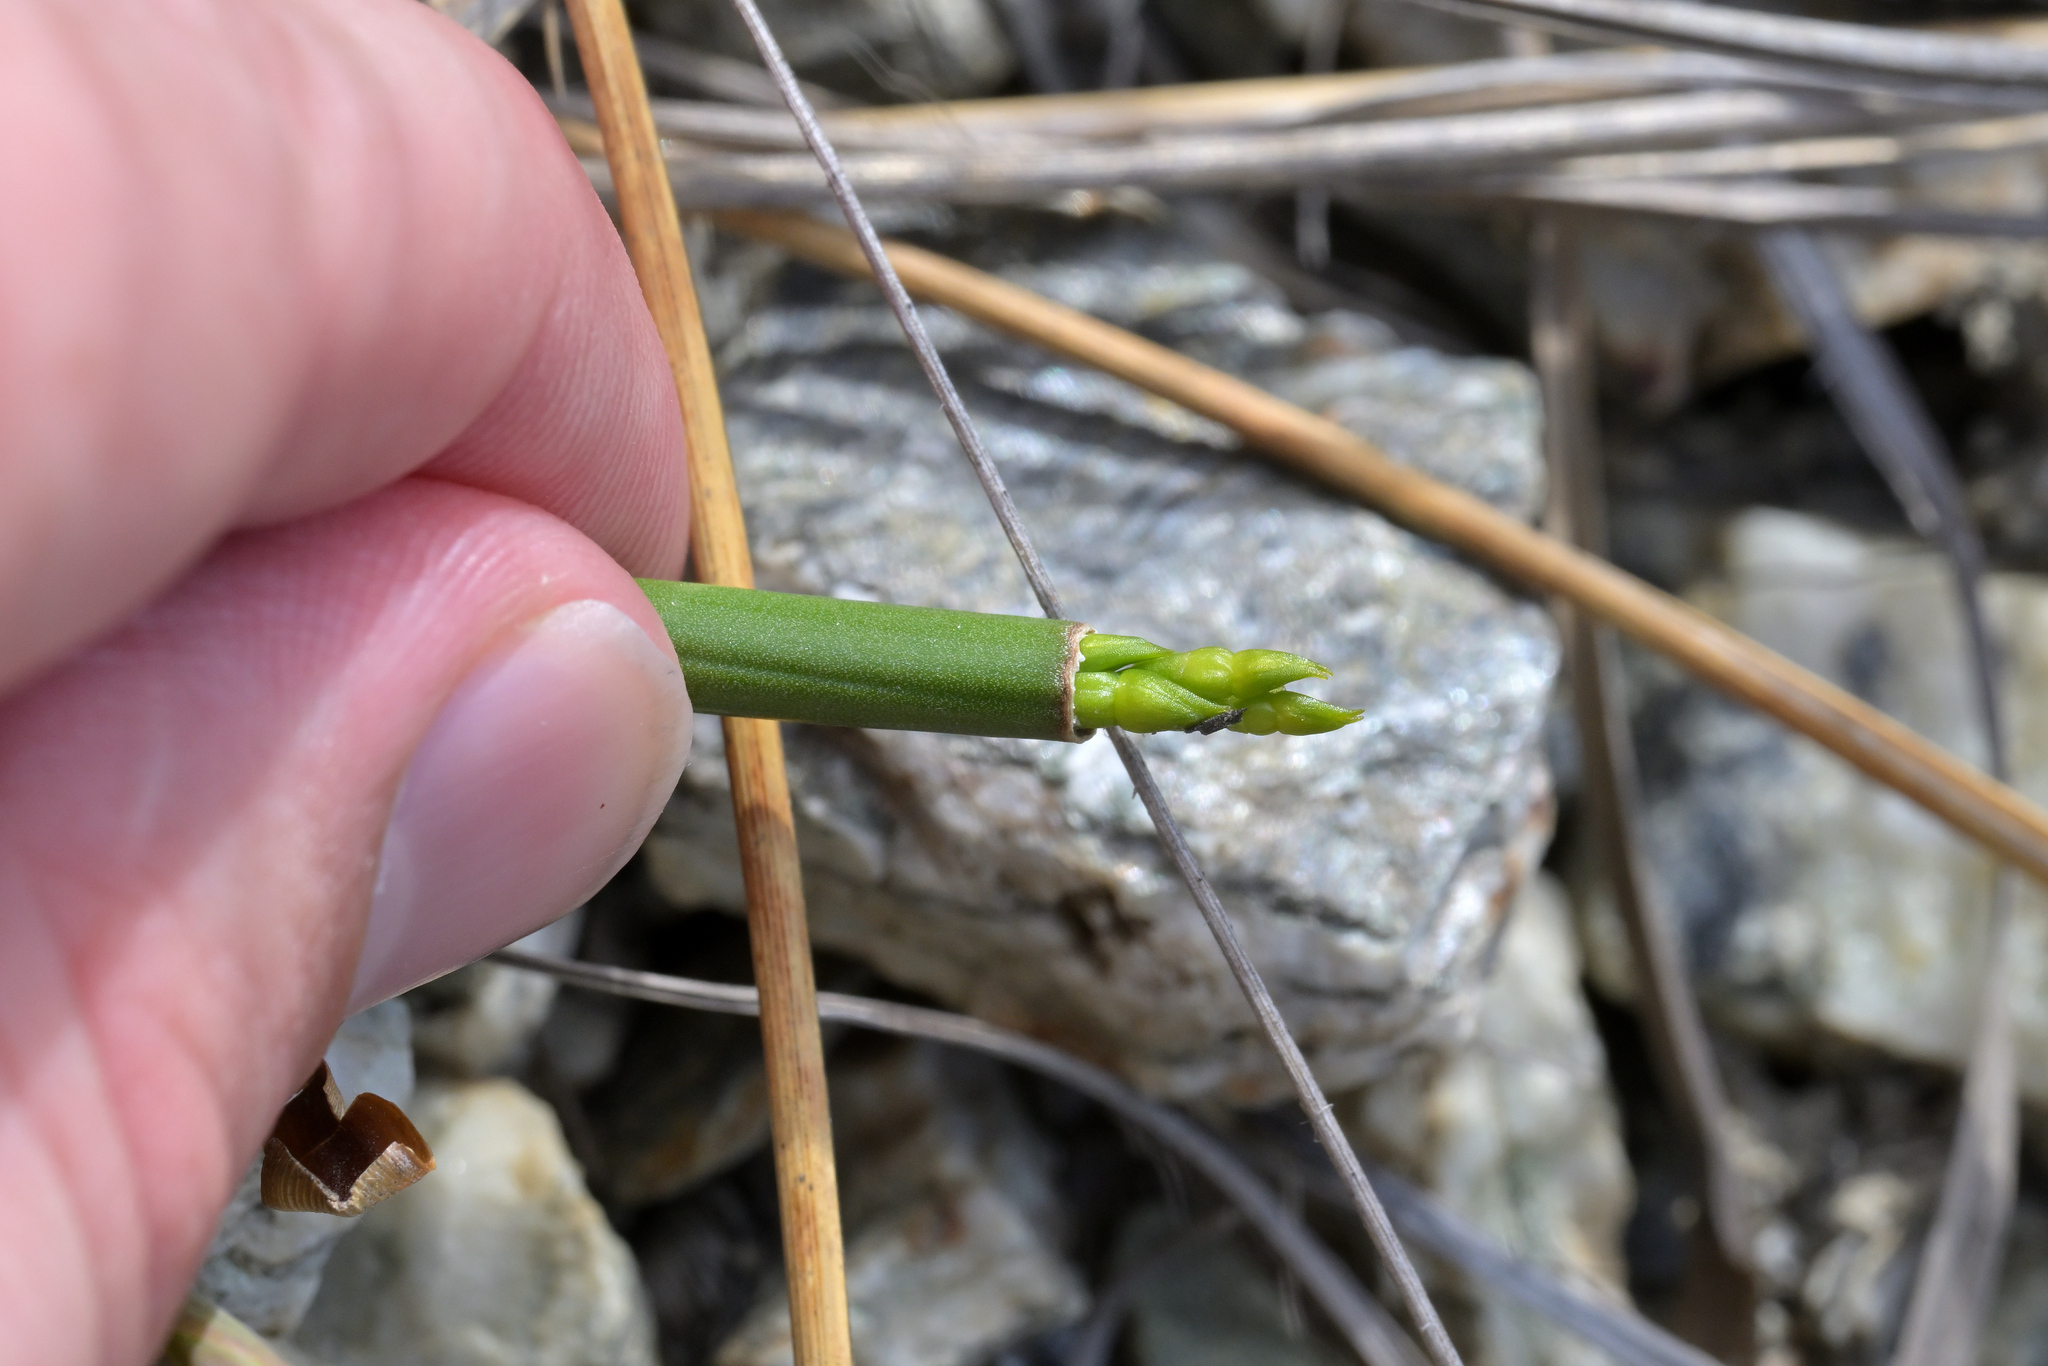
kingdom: Plantae
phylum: Tracheophyta
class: Liliopsida
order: Asparagales
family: Orchidaceae
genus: Prasophyllum
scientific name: Prasophyllum colensoi
